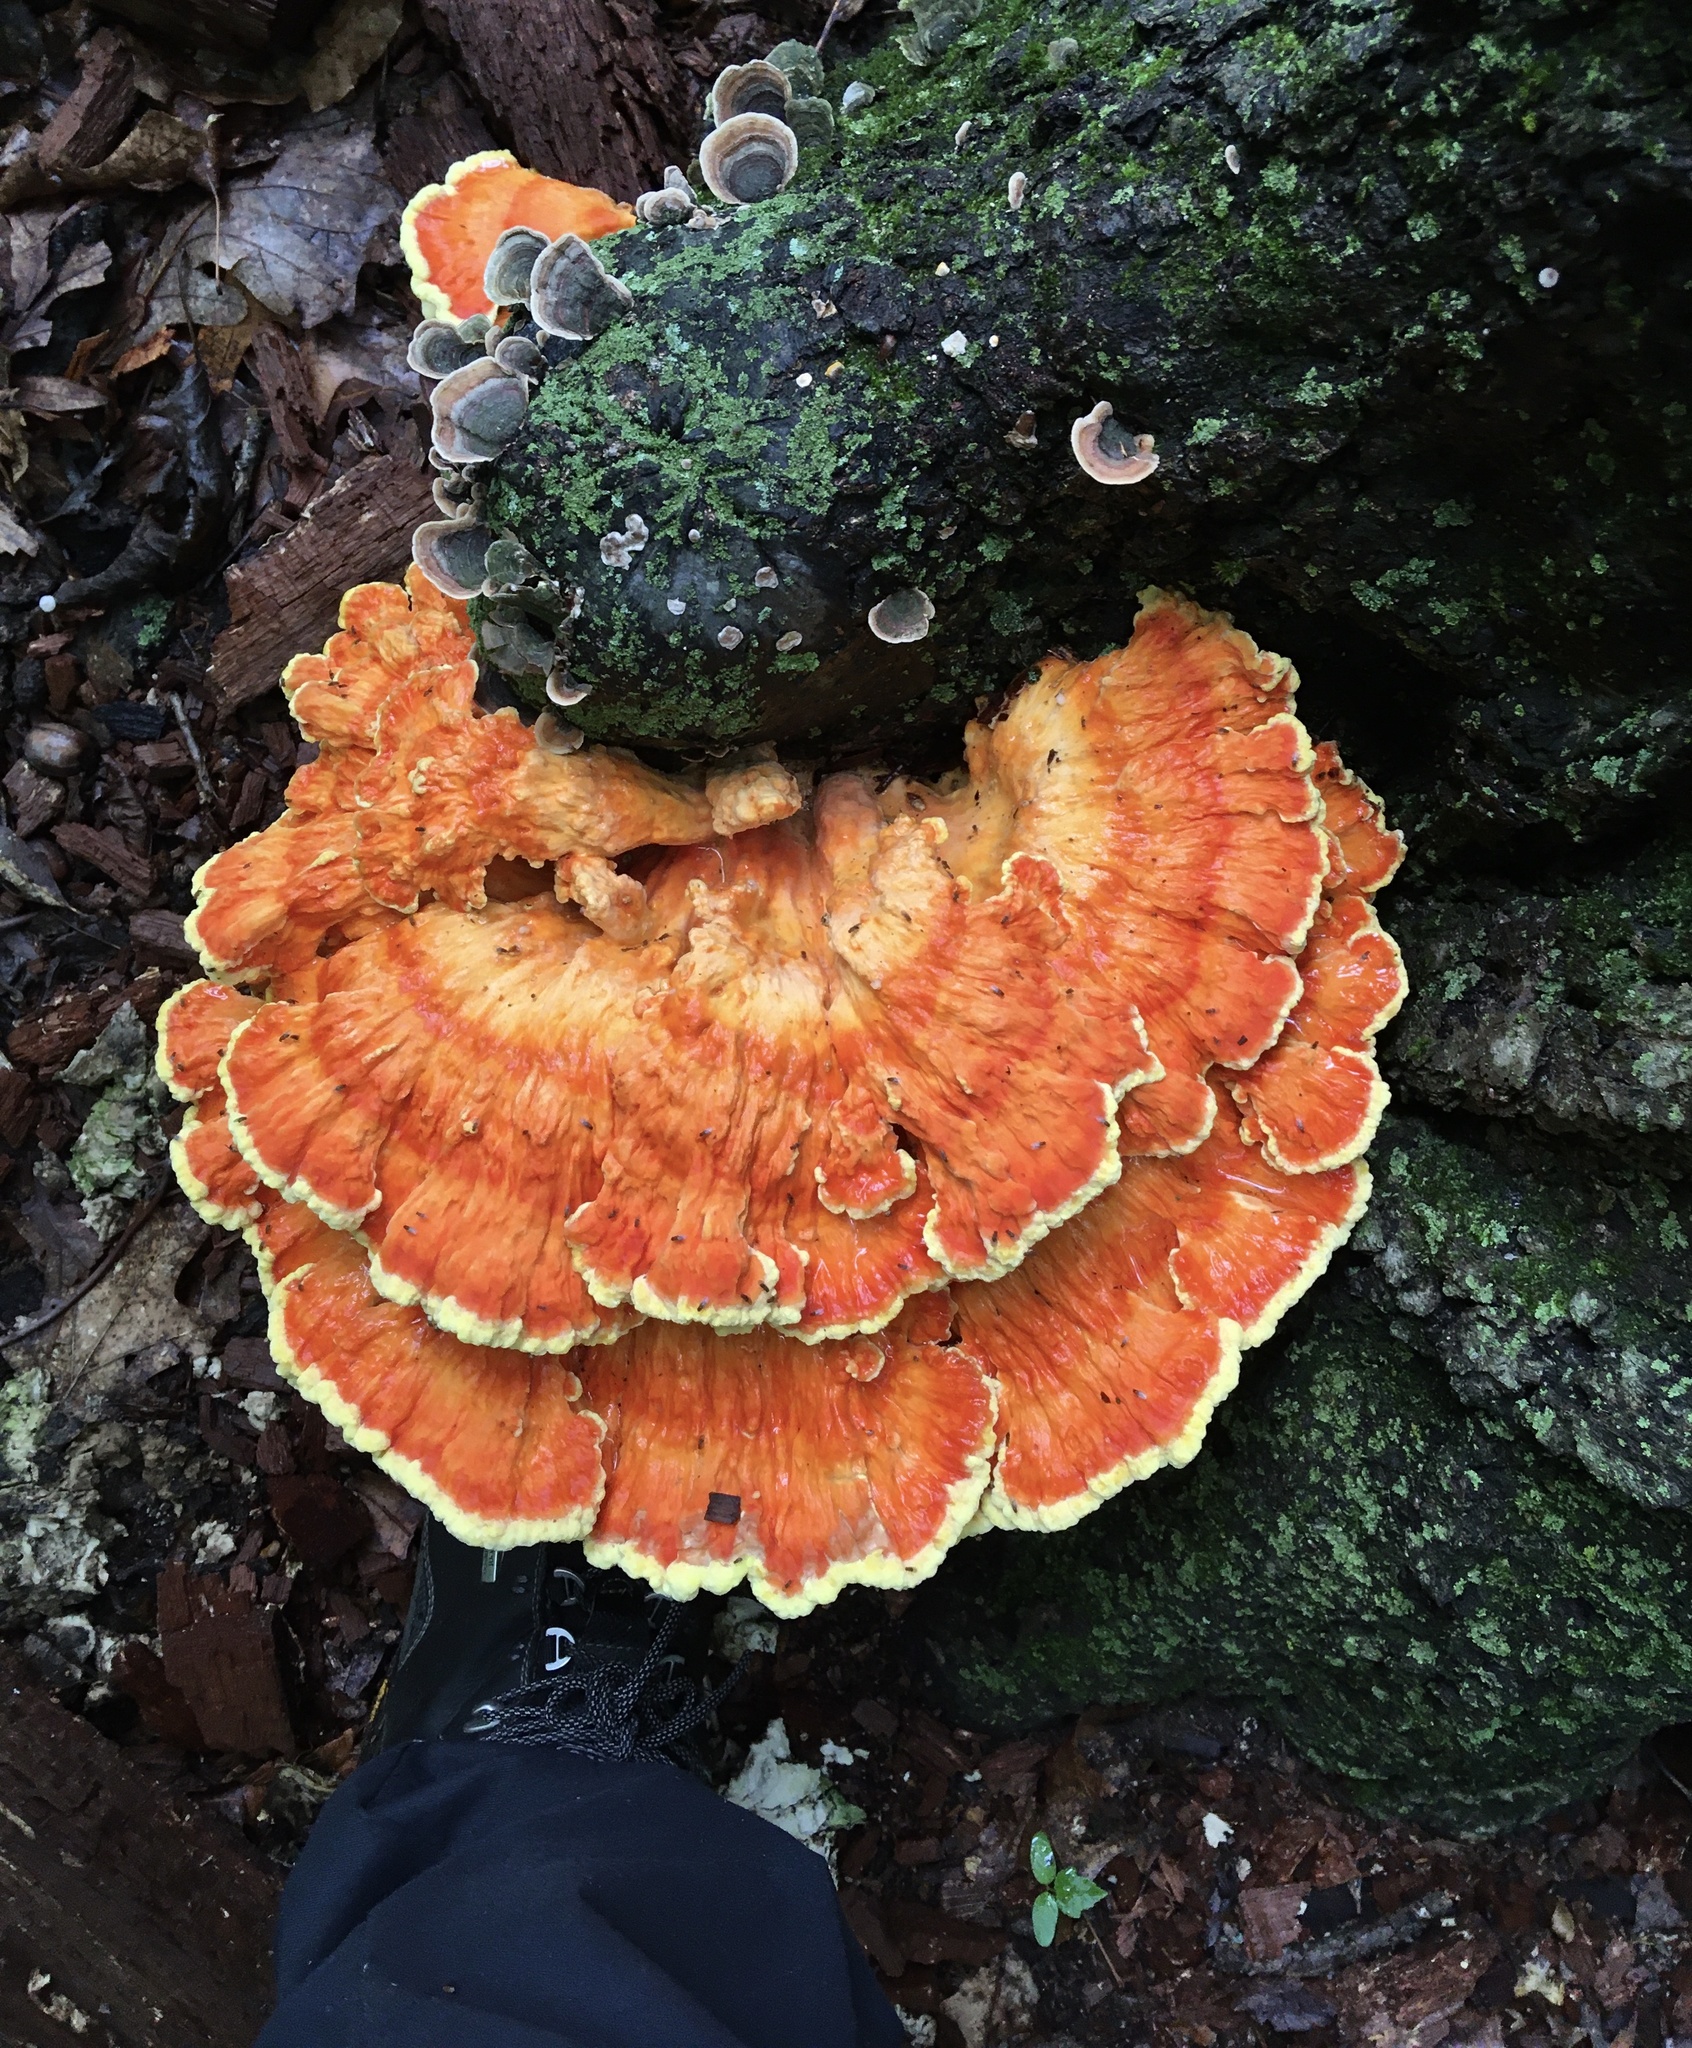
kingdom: Fungi
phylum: Basidiomycota
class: Agaricomycetes
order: Polyporales
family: Laetiporaceae
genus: Laetiporus
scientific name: Laetiporus sulphureus
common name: Chicken of the woods
